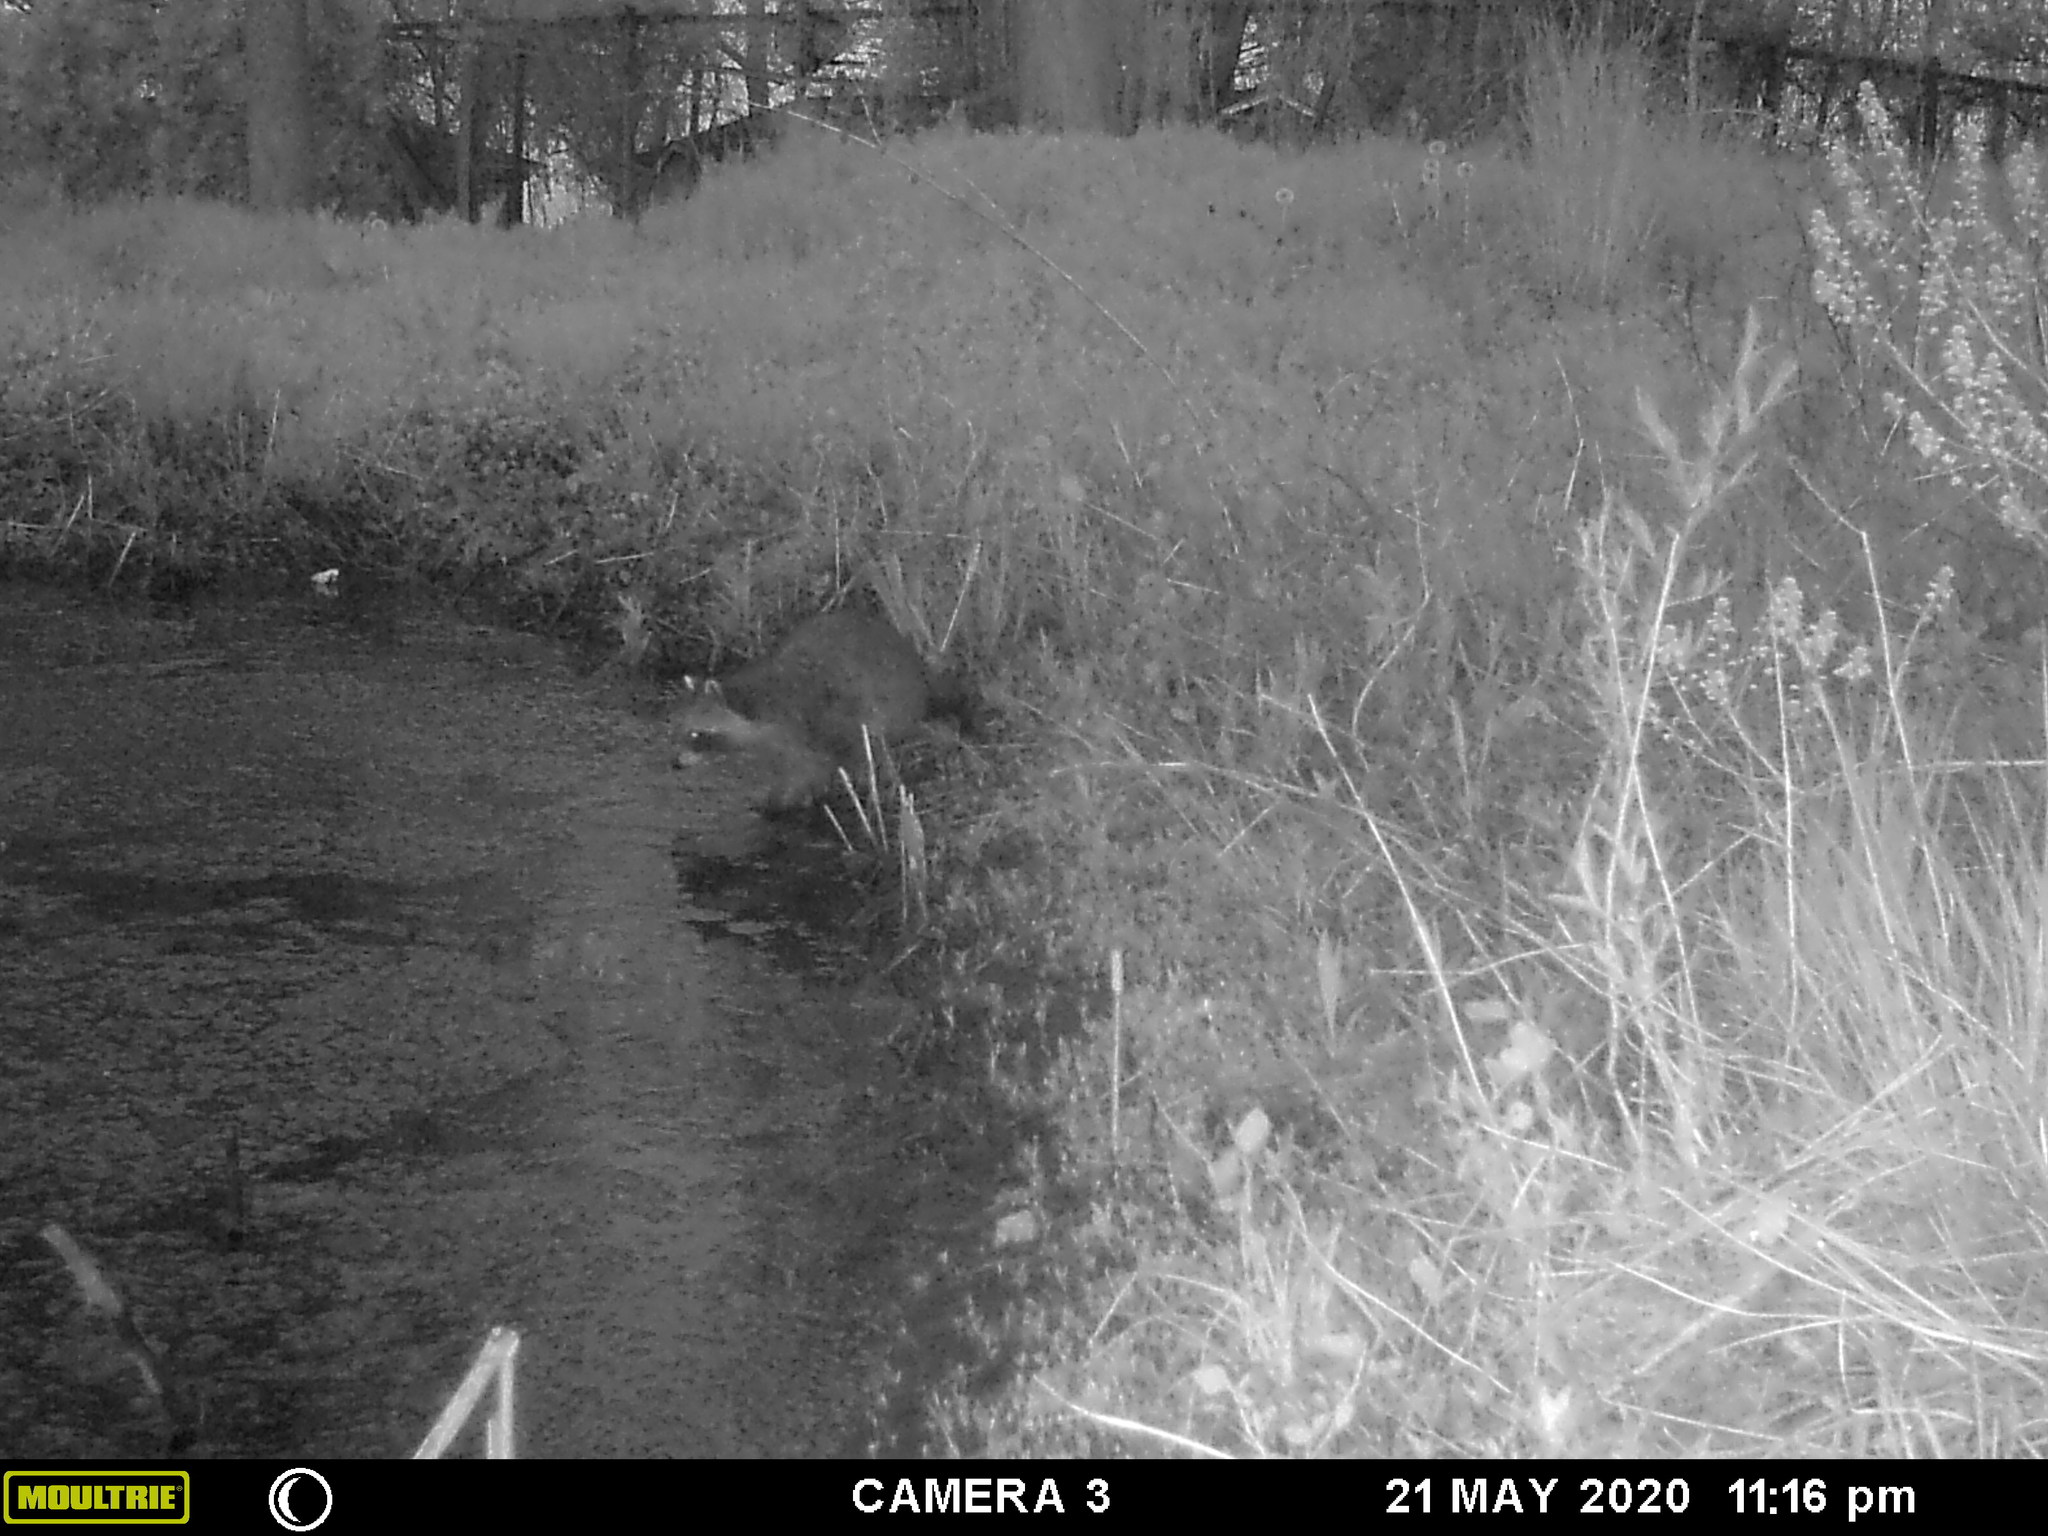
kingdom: Animalia
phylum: Chordata
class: Mammalia
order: Carnivora
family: Procyonidae
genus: Procyon
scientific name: Procyon lotor
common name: Raccoon
